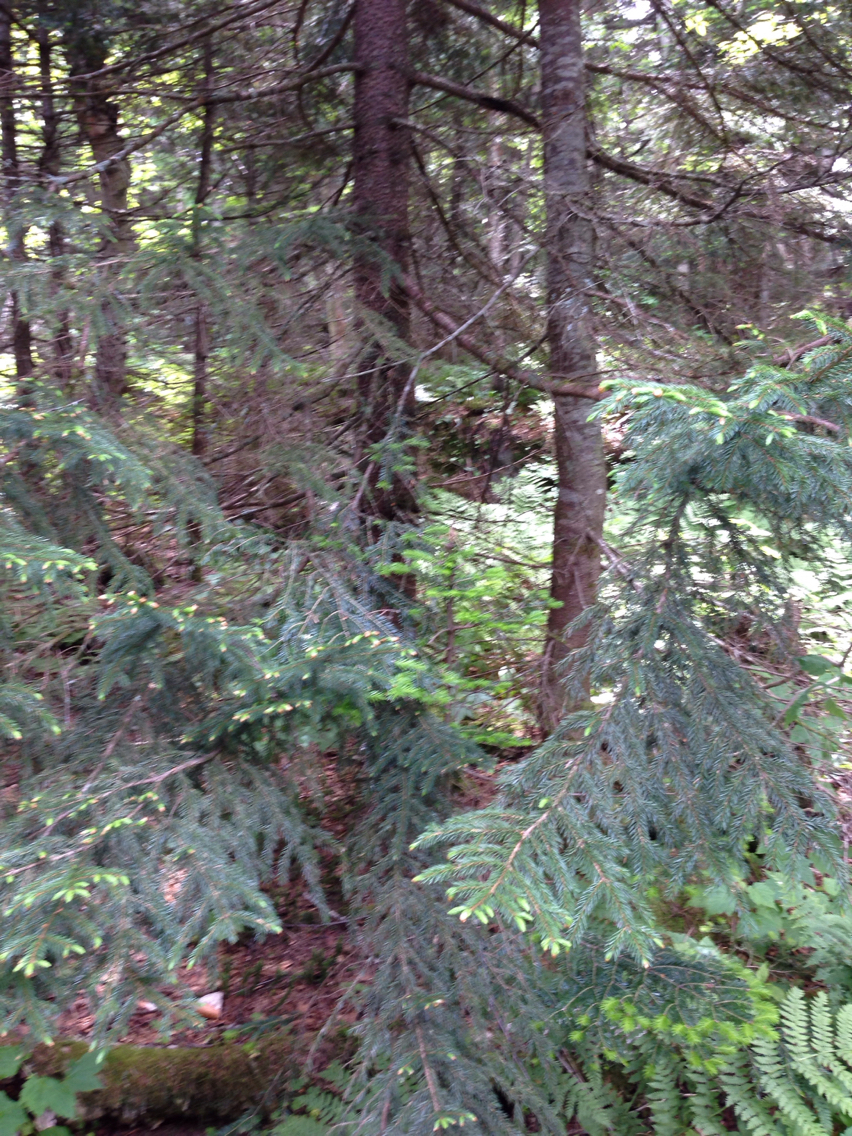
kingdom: Plantae
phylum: Tracheophyta
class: Pinopsida
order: Pinales
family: Pinaceae
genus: Picea
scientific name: Picea rubens
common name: Red spruce
